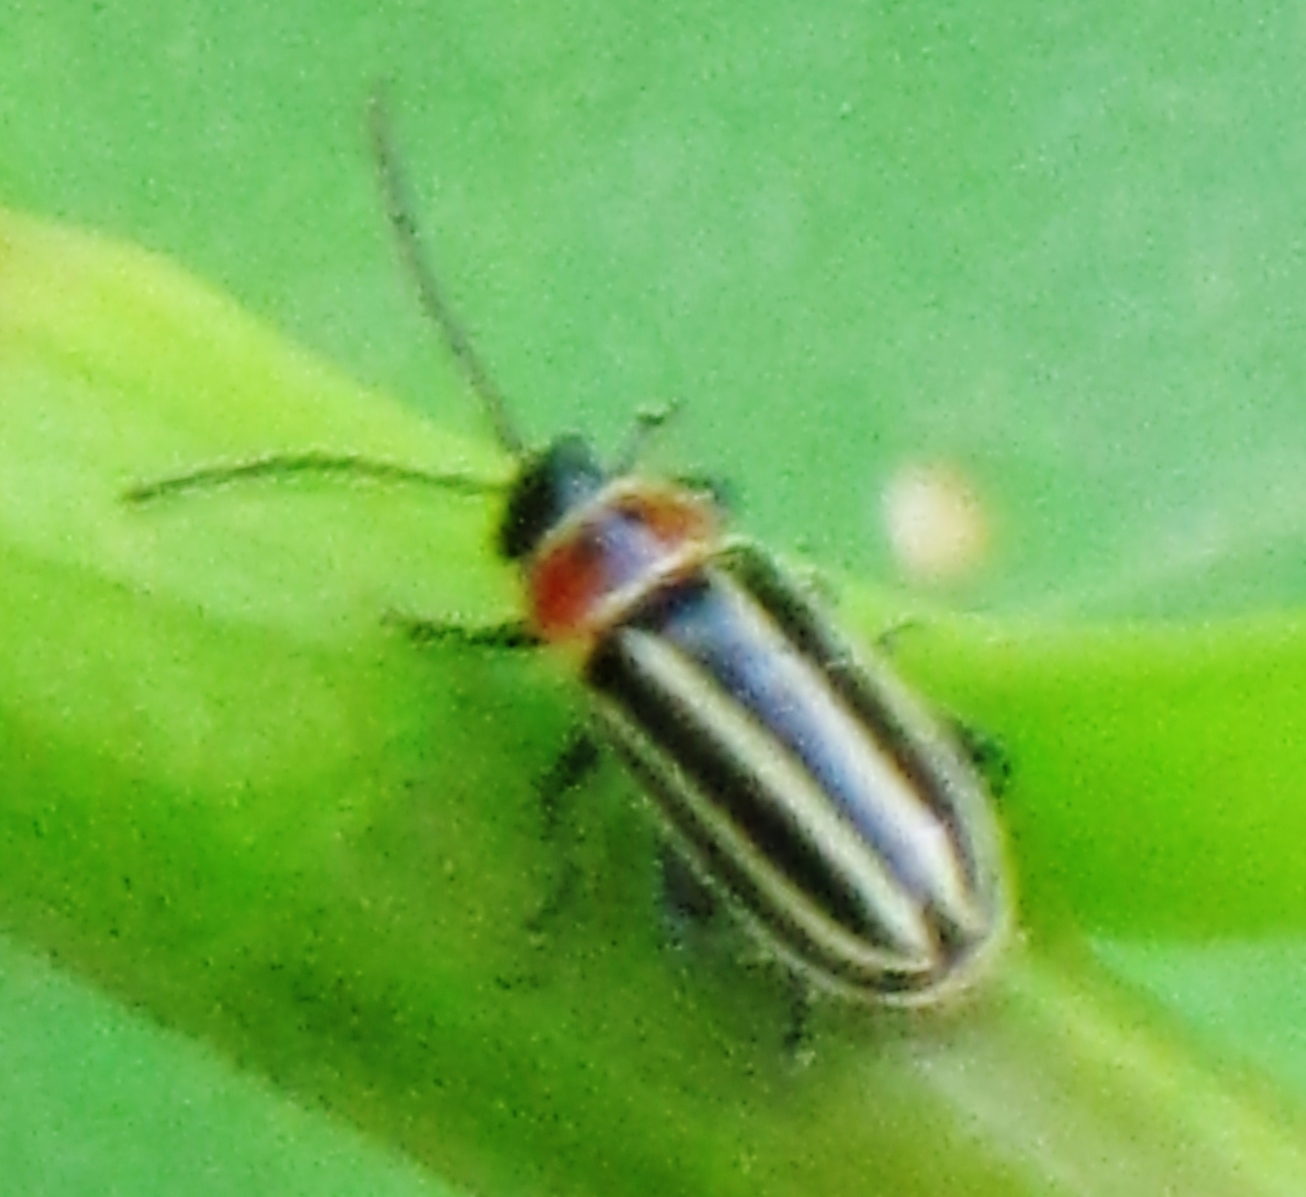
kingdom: Animalia
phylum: Arthropoda
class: Insecta
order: Coleoptera
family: Chrysomelidae
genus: Disonycha
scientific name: Disonycha pensylvanica
